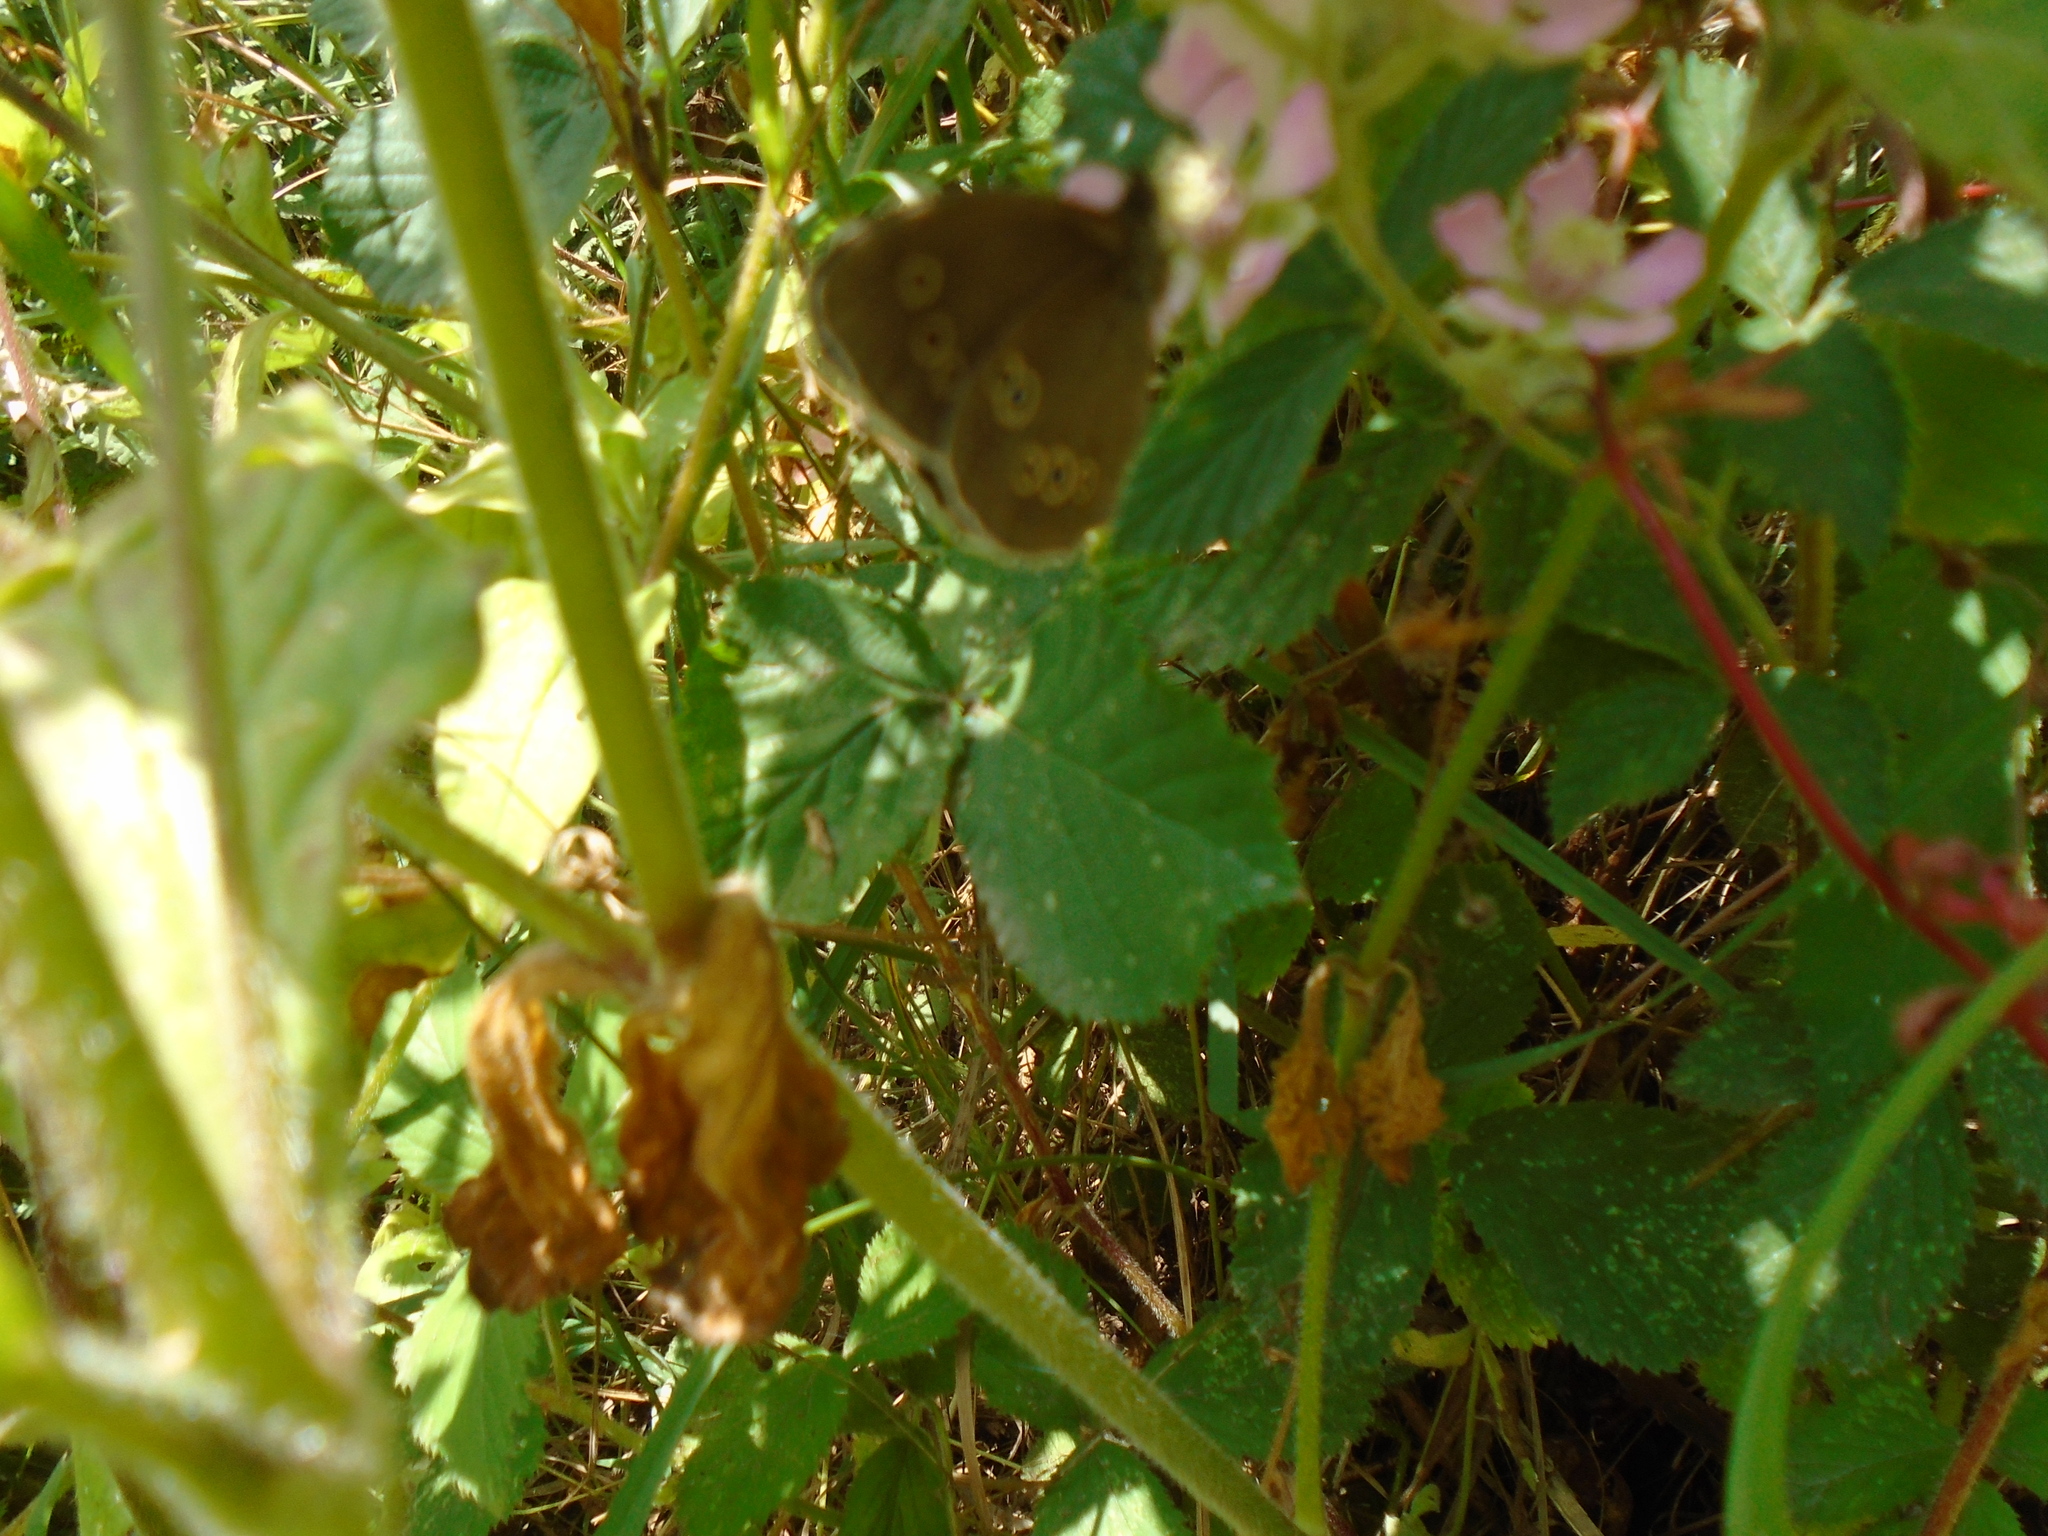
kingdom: Animalia
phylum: Arthropoda
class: Insecta
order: Lepidoptera
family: Nymphalidae
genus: Aphantopus
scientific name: Aphantopus hyperantus
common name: Ringlet
